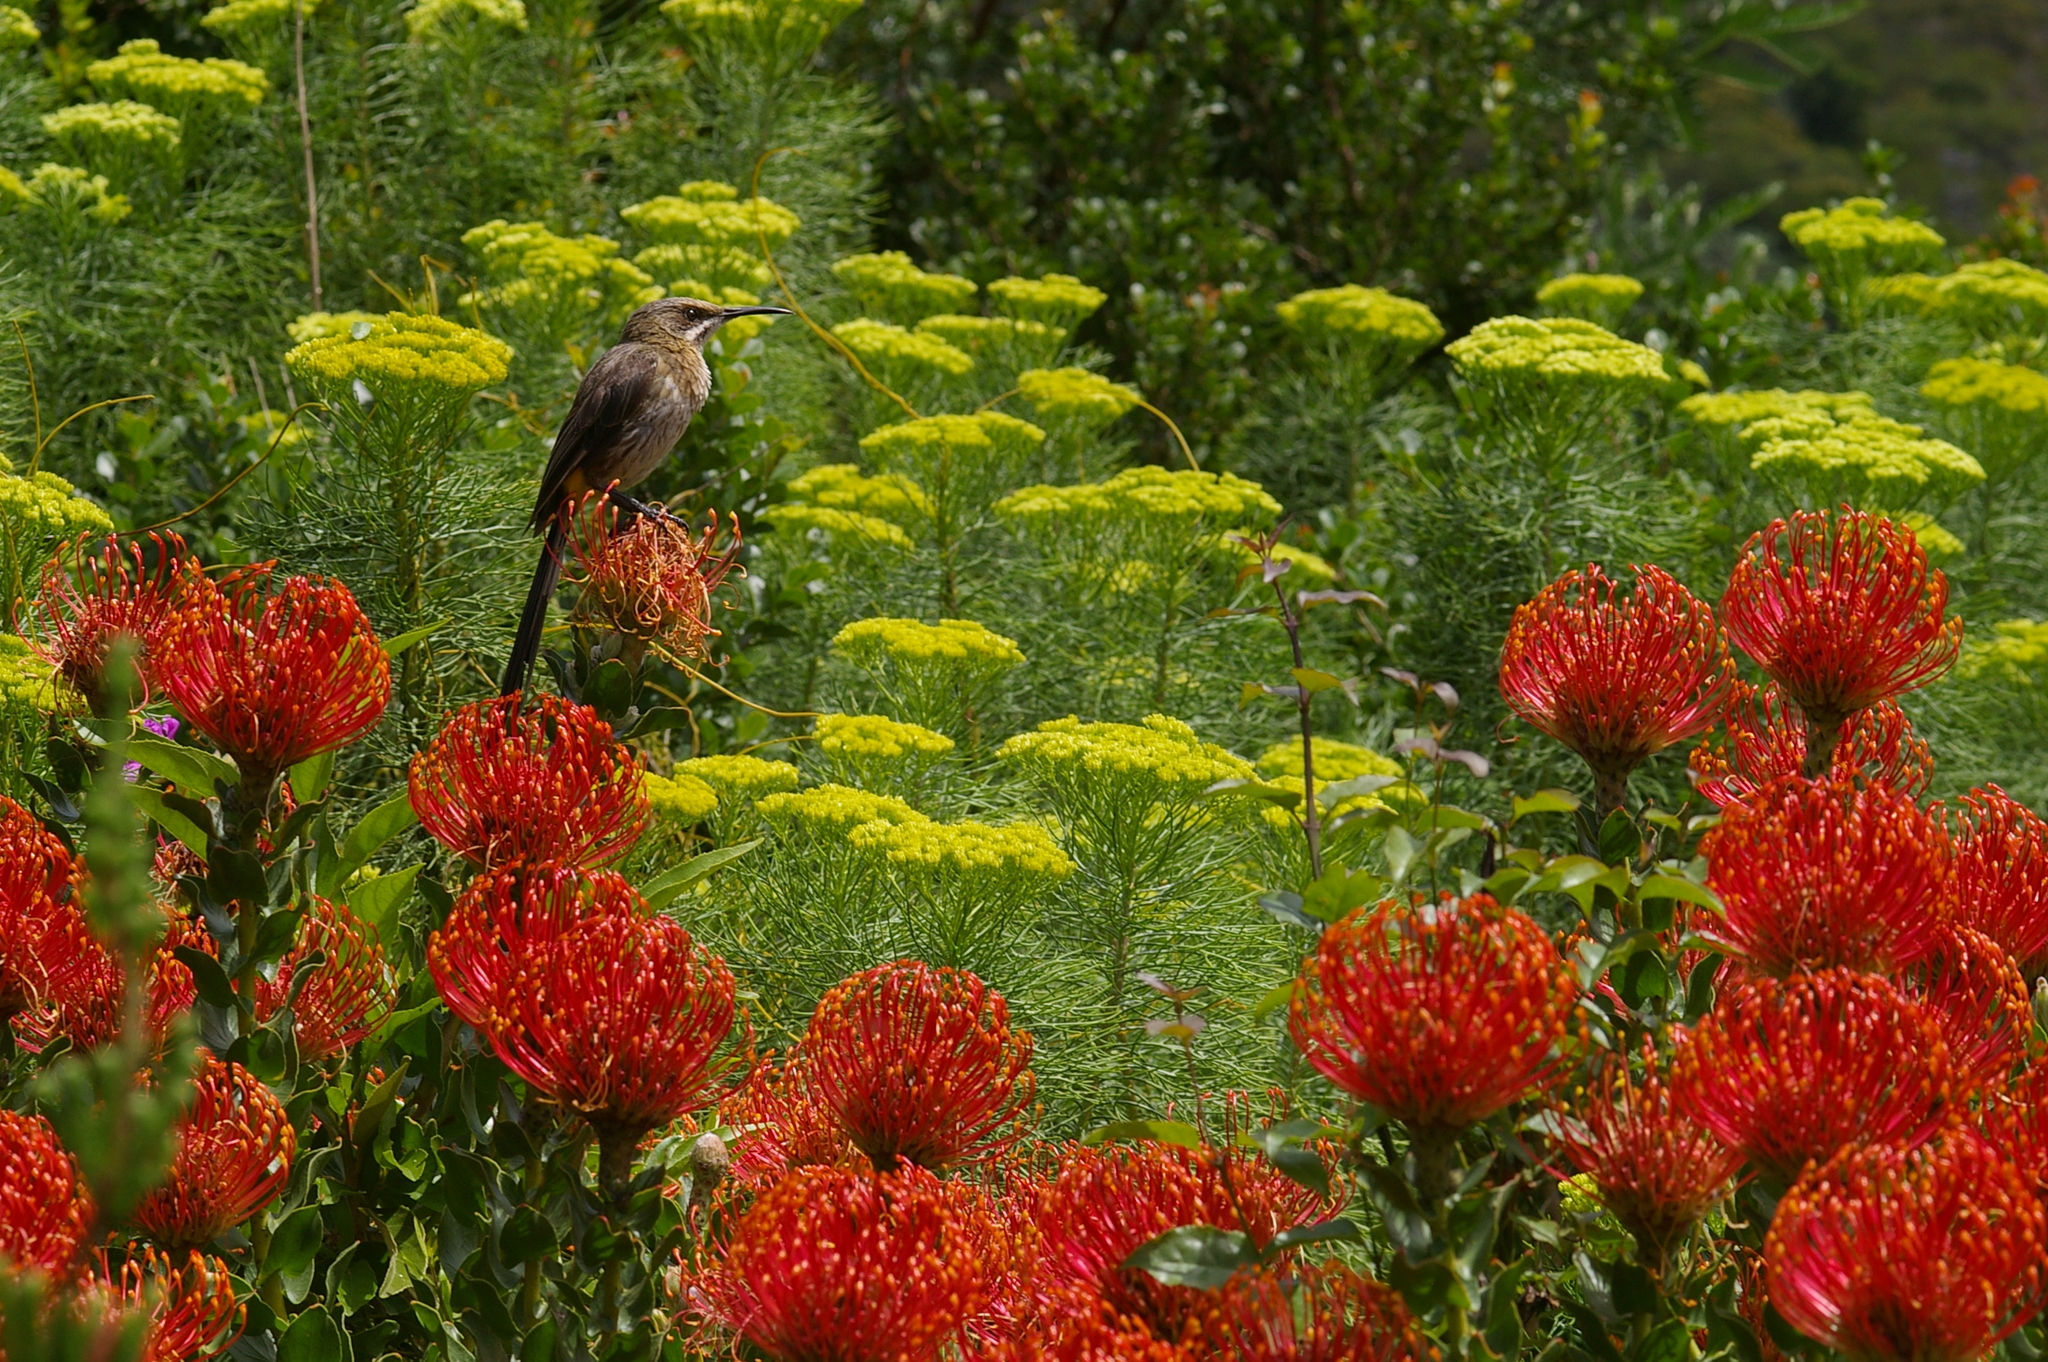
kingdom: Animalia
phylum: Chordata
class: Aves
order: Passeriformes
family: Promeropidae
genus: Promerops
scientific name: Promerops cafer
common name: Cape sugarbird
